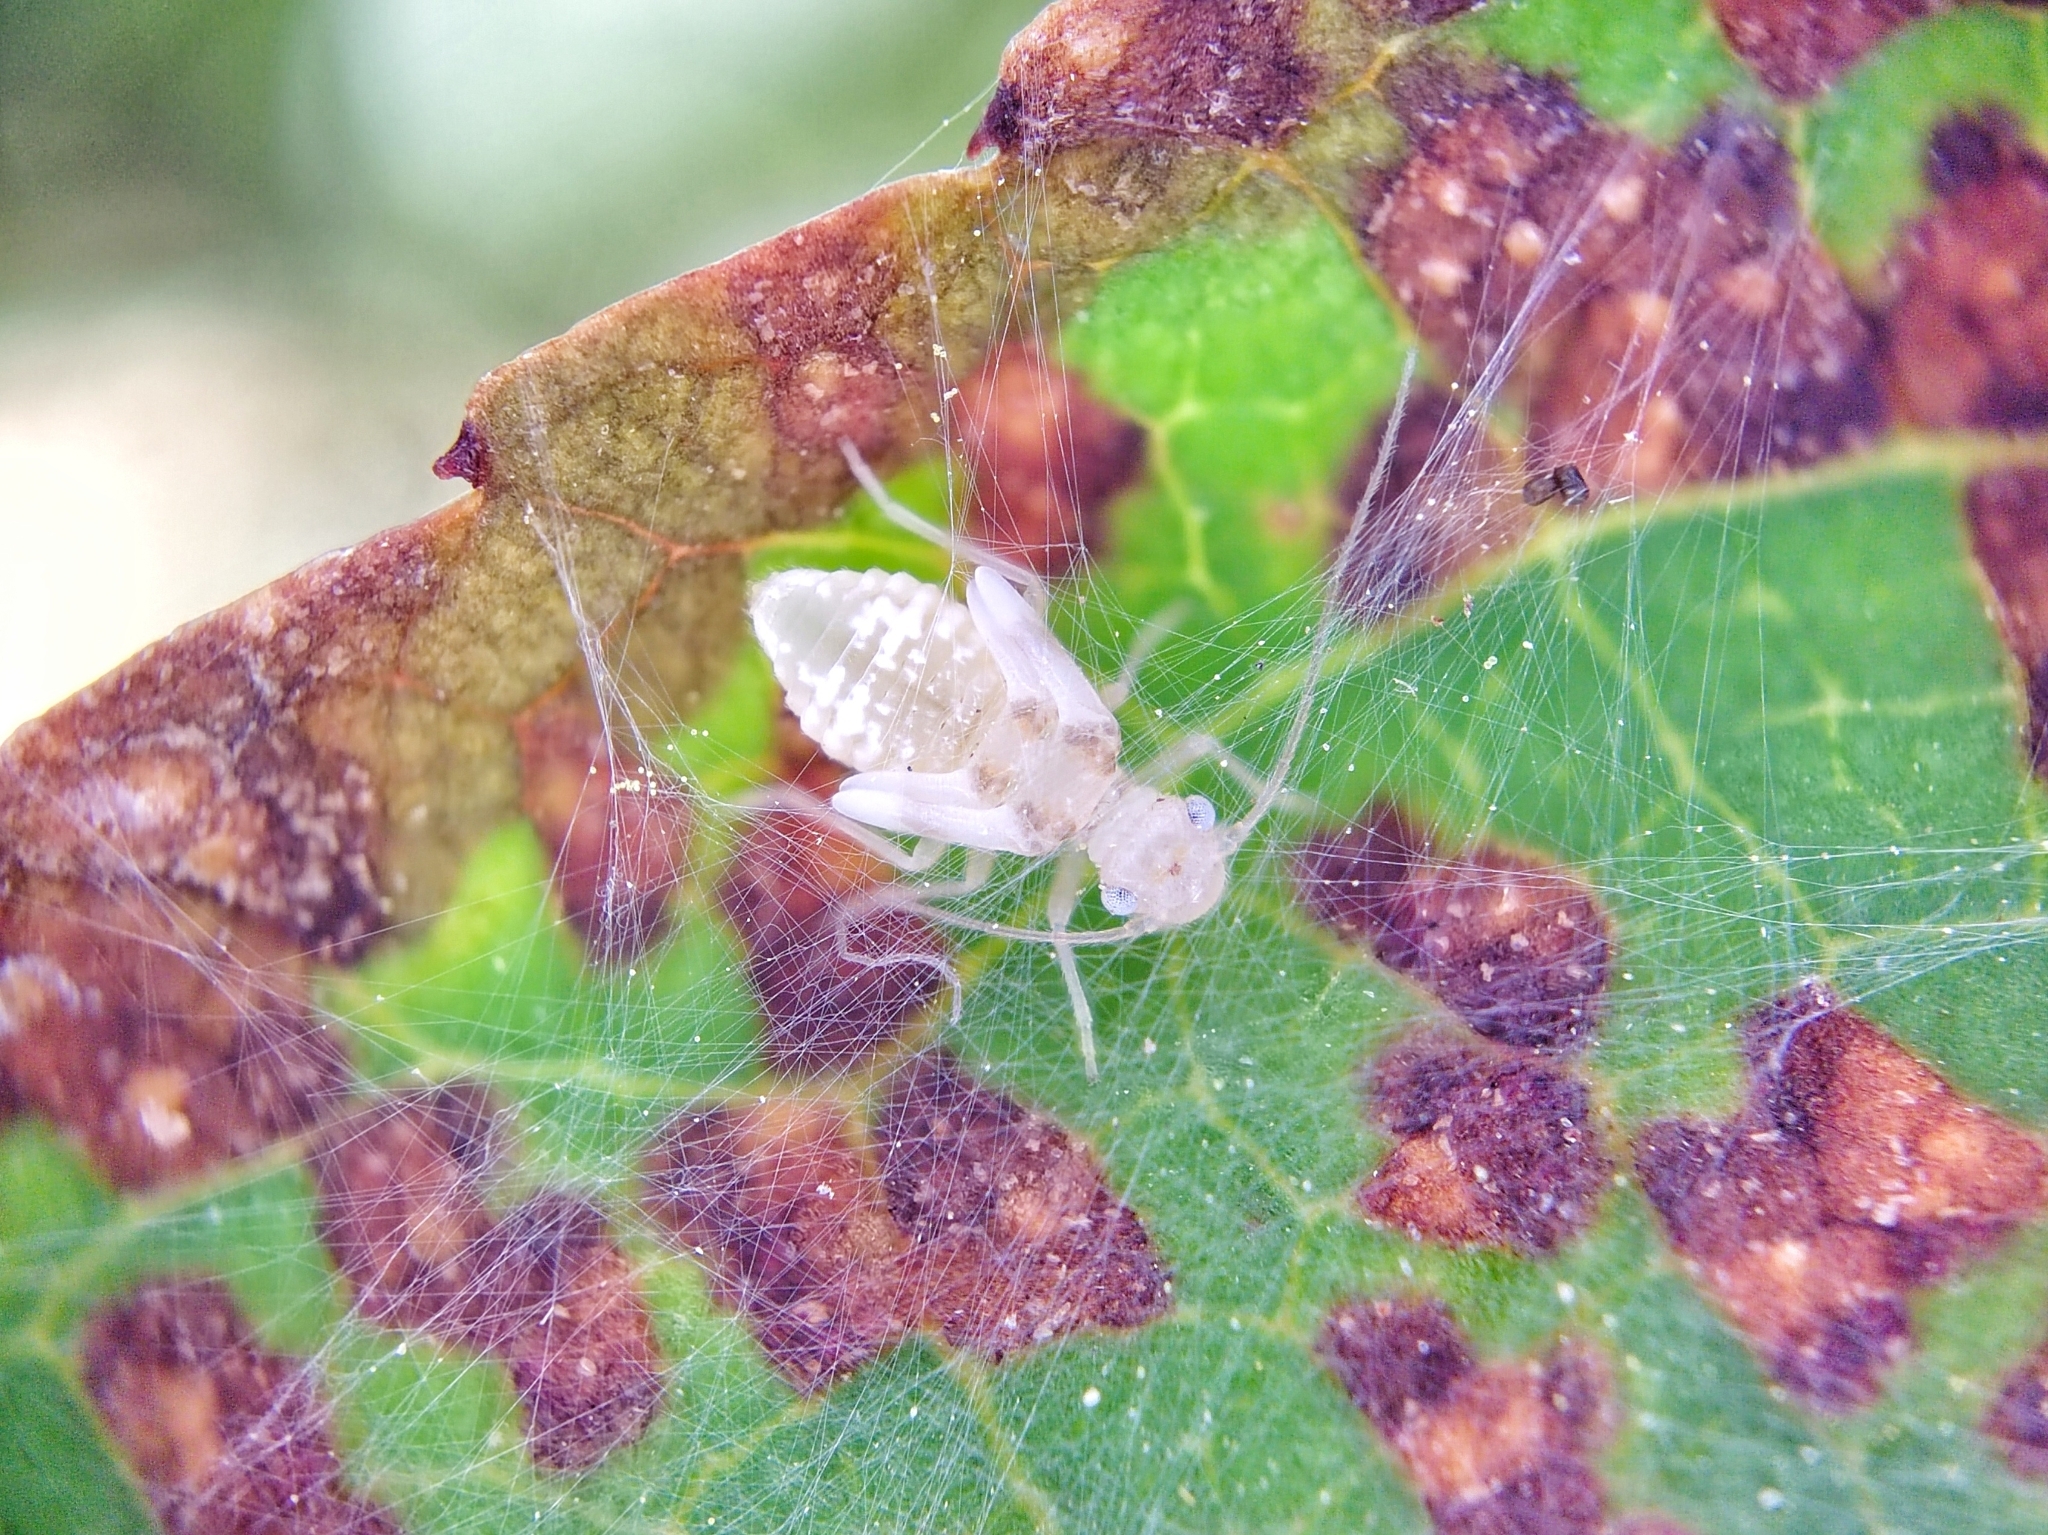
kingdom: Animalia
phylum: Arthropoda
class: Insecta
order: Psocodea
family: Stenopsocidae
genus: Graphopsocus
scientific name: Graphopsocus cruciatus
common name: Lizard bark louse
